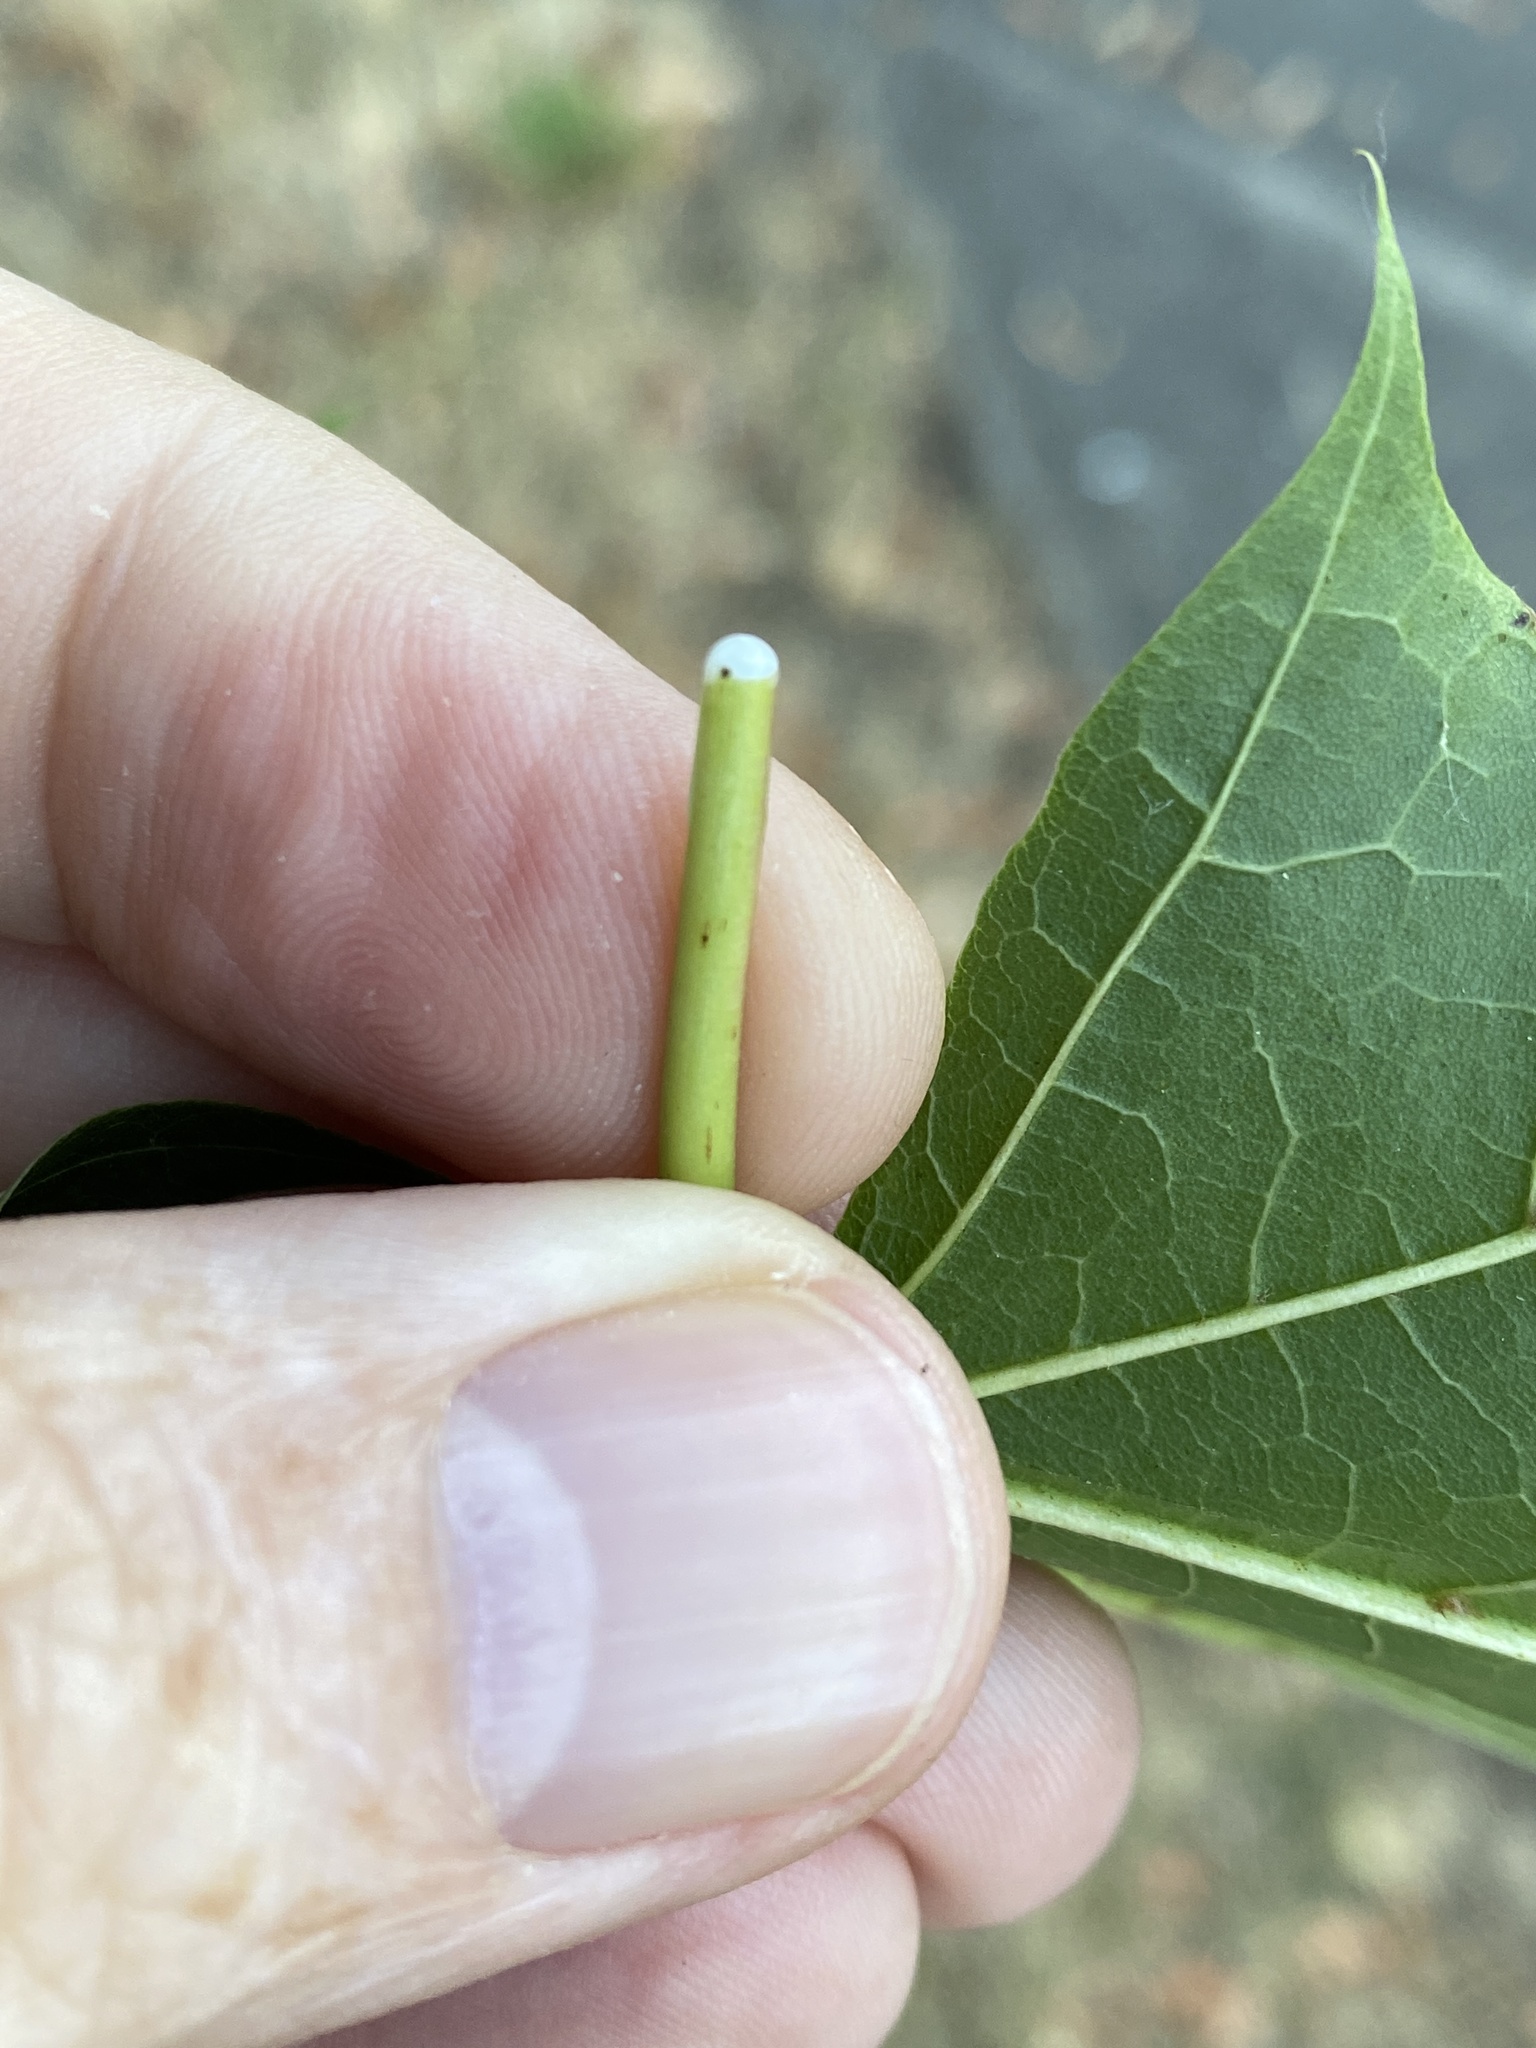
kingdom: Plantae
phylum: Tracheophyta
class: Magnoliopsida
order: Sapindales
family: Sapindaceae
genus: Acer
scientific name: Acer platanoides
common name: Norway maple
